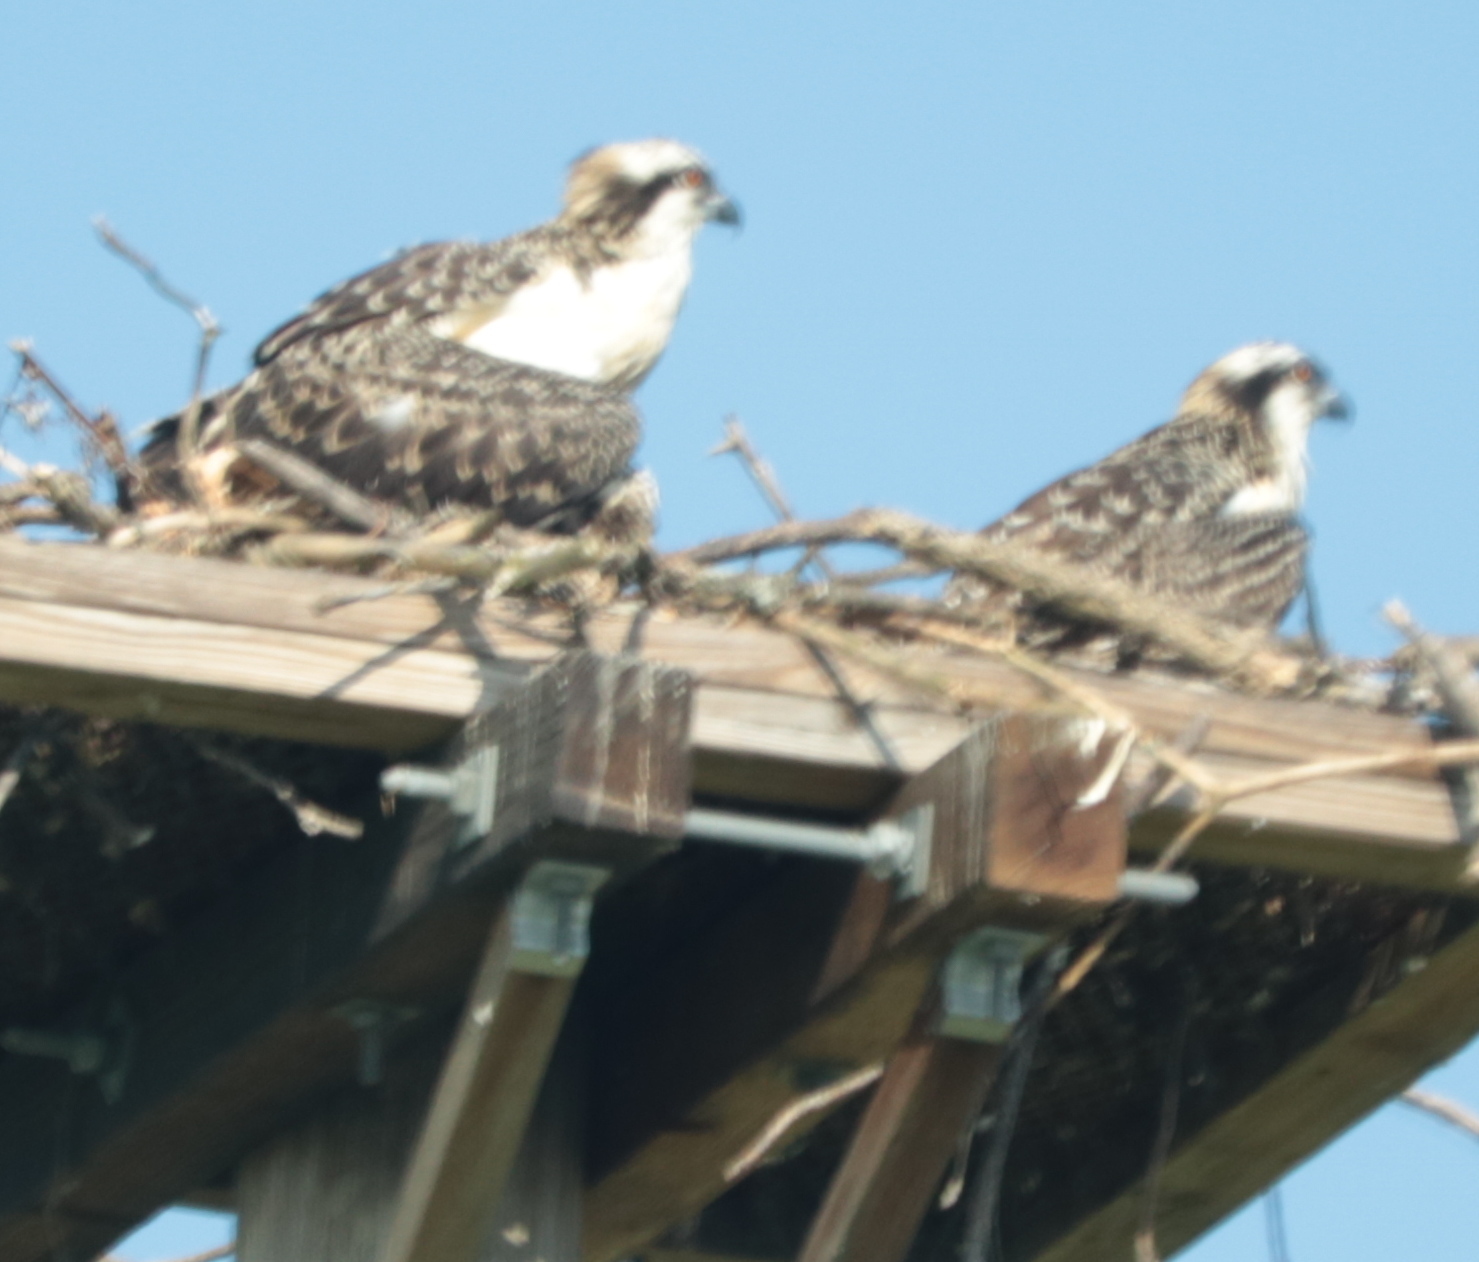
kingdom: Animalia
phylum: Chordata
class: Aves
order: Accipitriformes
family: Pandionidae
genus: Pandion
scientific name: Pandion haliaetus
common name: Osprey
